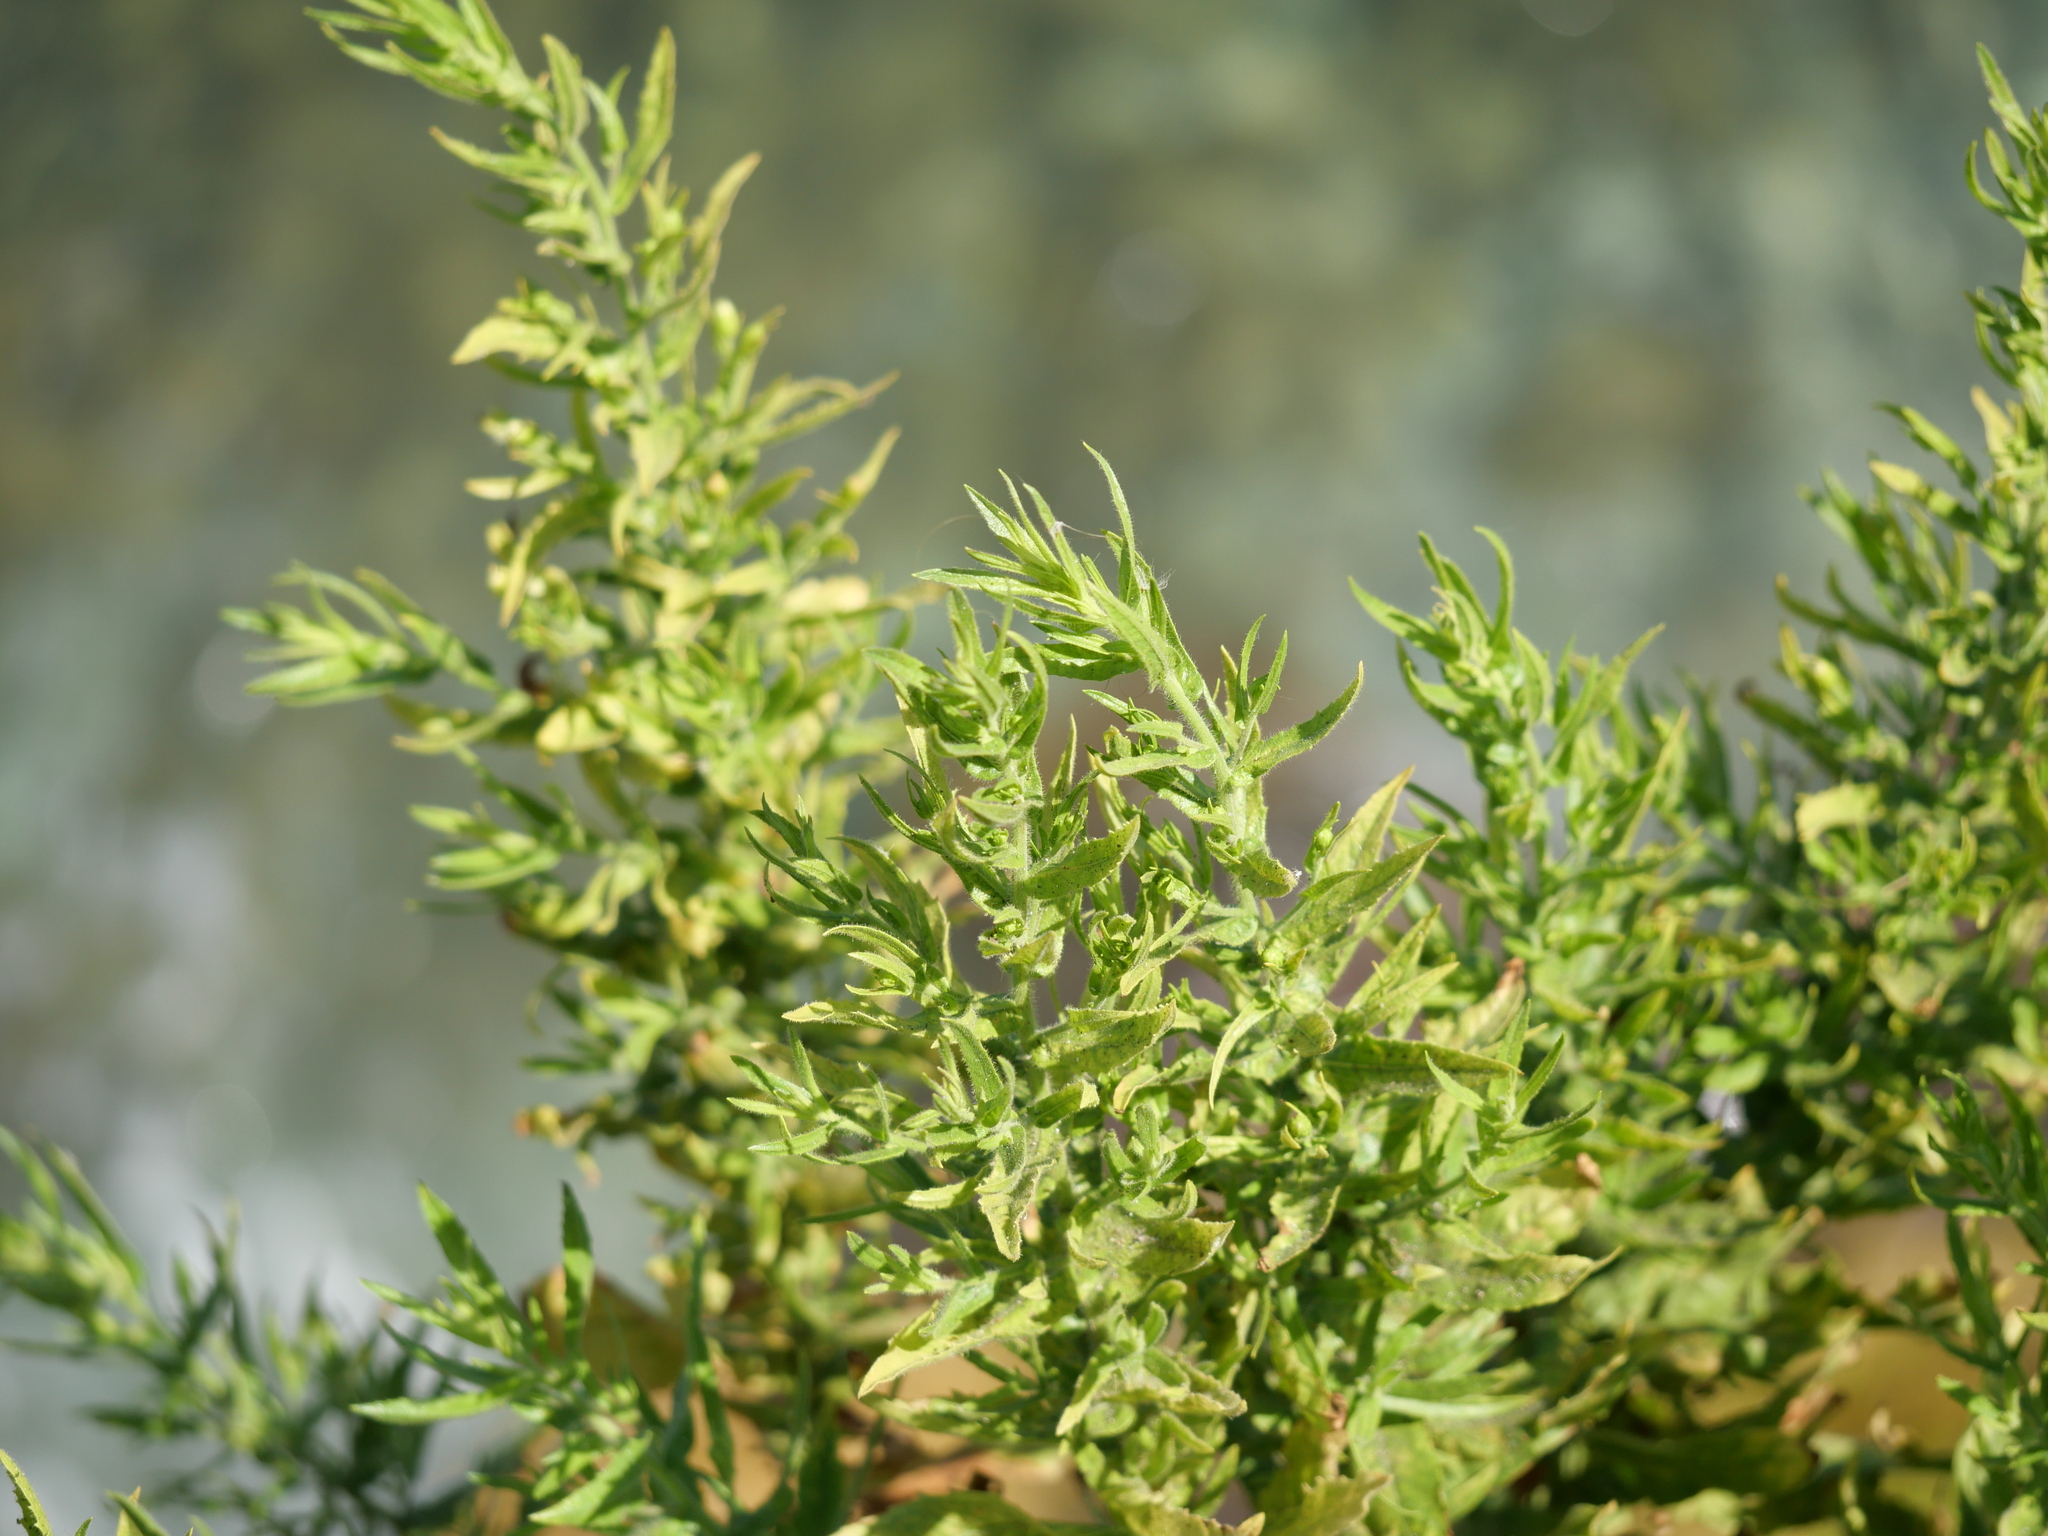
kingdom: Plantae
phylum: Tracheophyta
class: Magnoliopsida
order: Asterales
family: Asteraceae
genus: Dittrichia
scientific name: Dittrichia viscosa
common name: Woody fleabane
